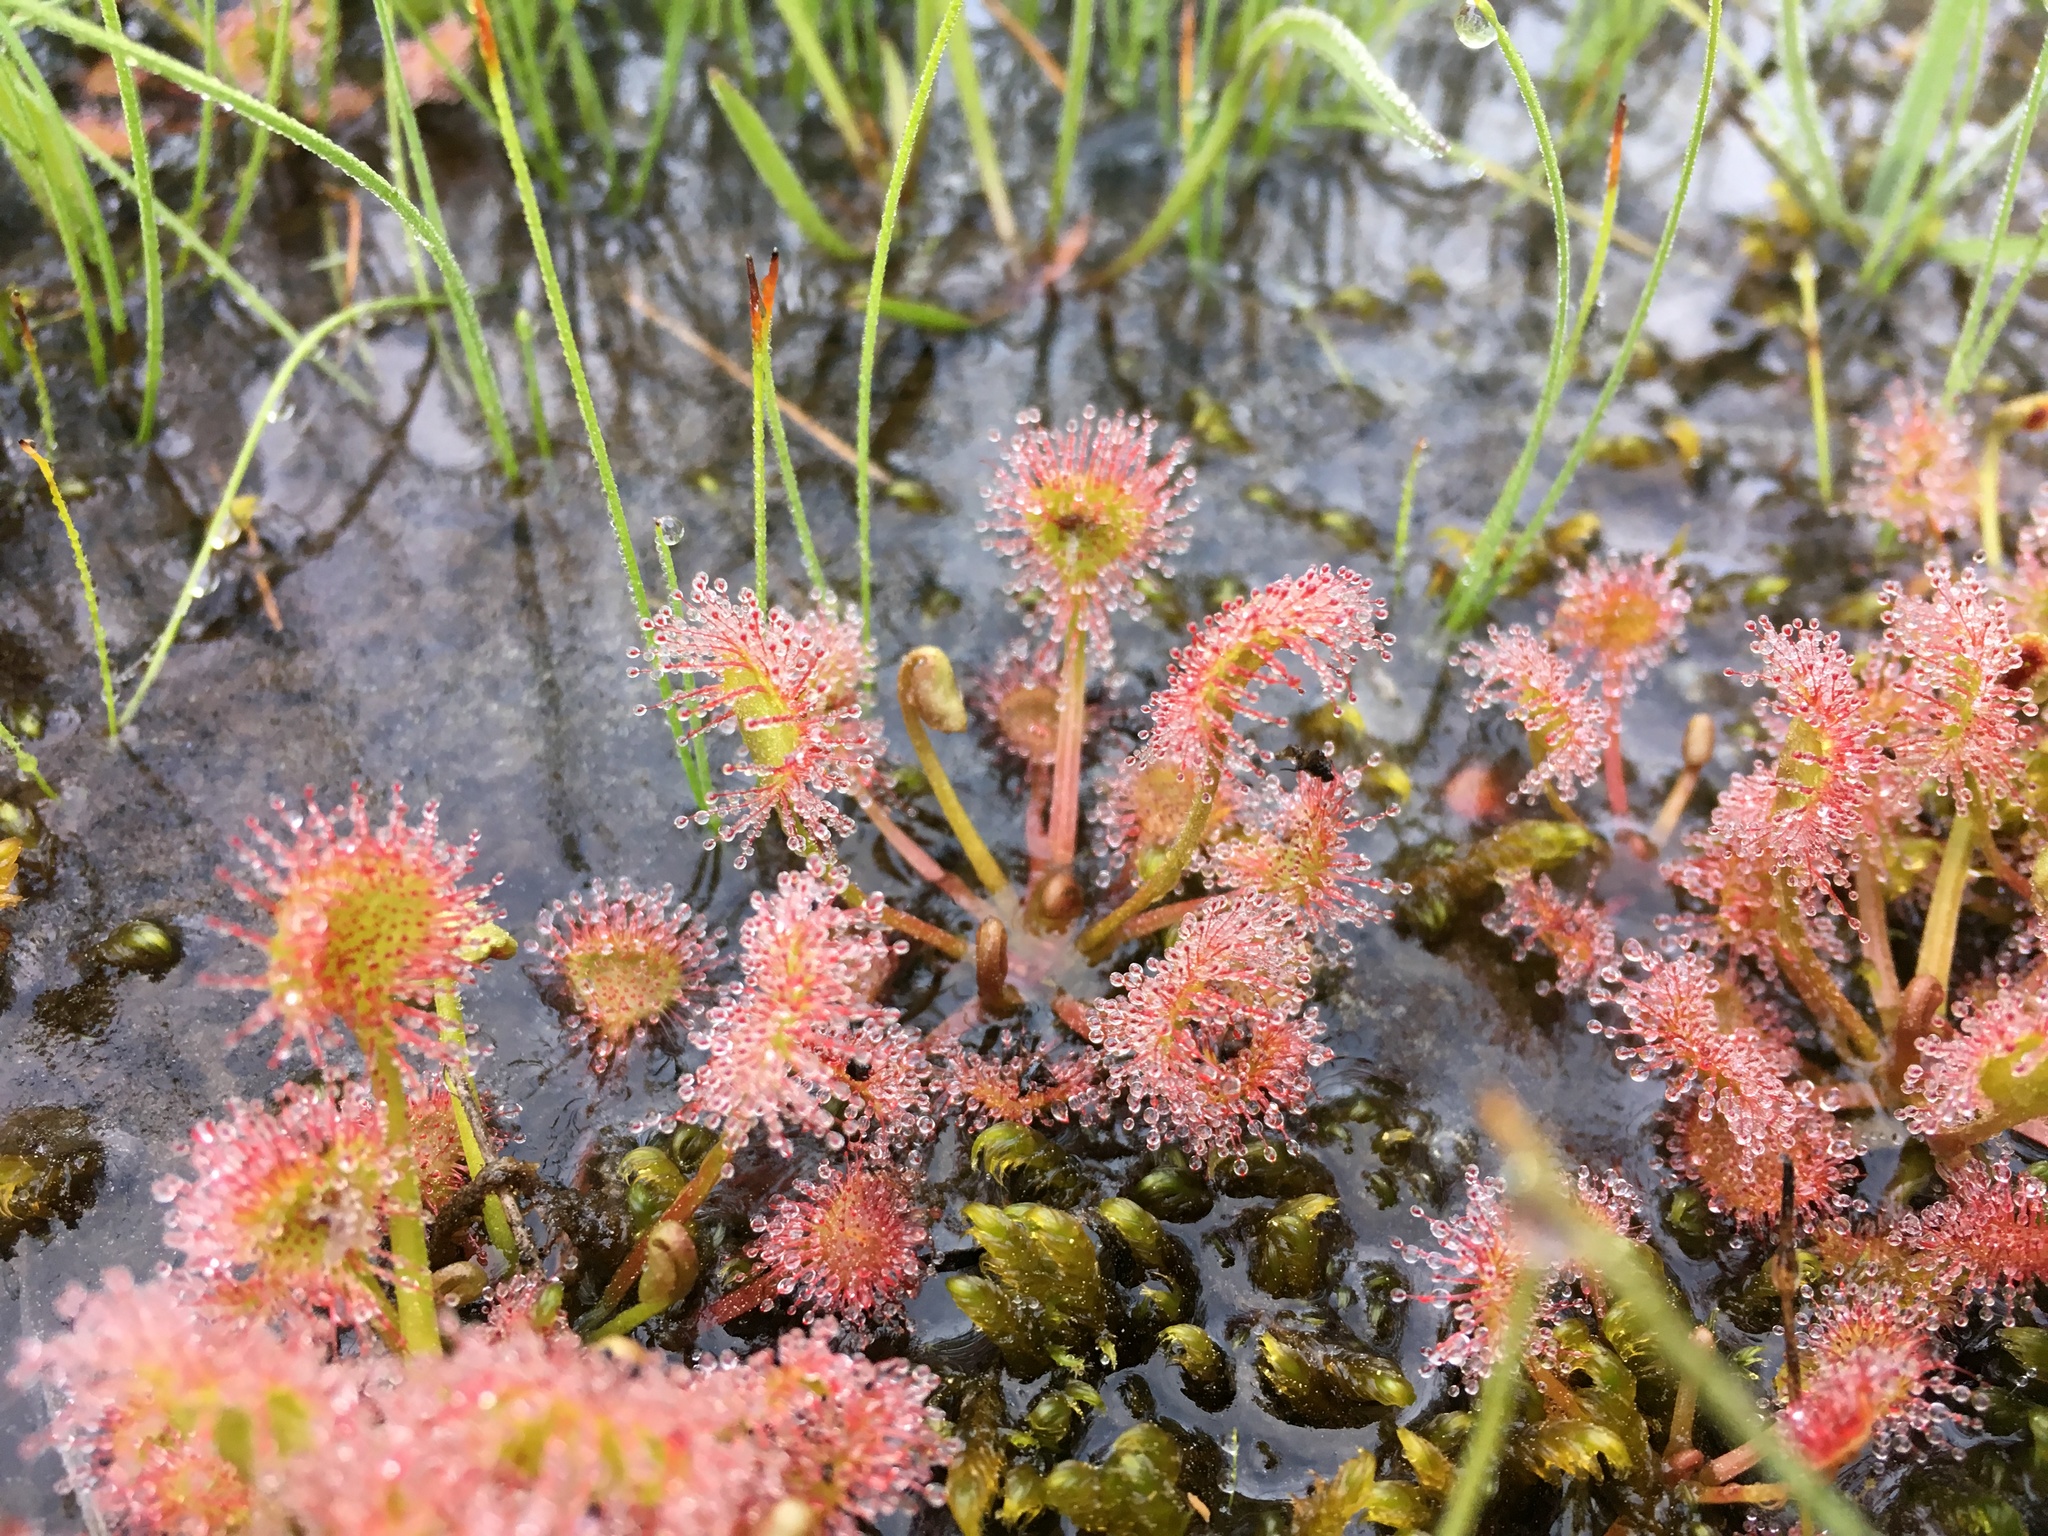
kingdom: Plantae
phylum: Tracheophyta
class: Magnoliopsida
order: Caryophyllales
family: Droseraceae
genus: Drosera
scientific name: Drosera rotundifolia
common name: Round-leaved sundew
